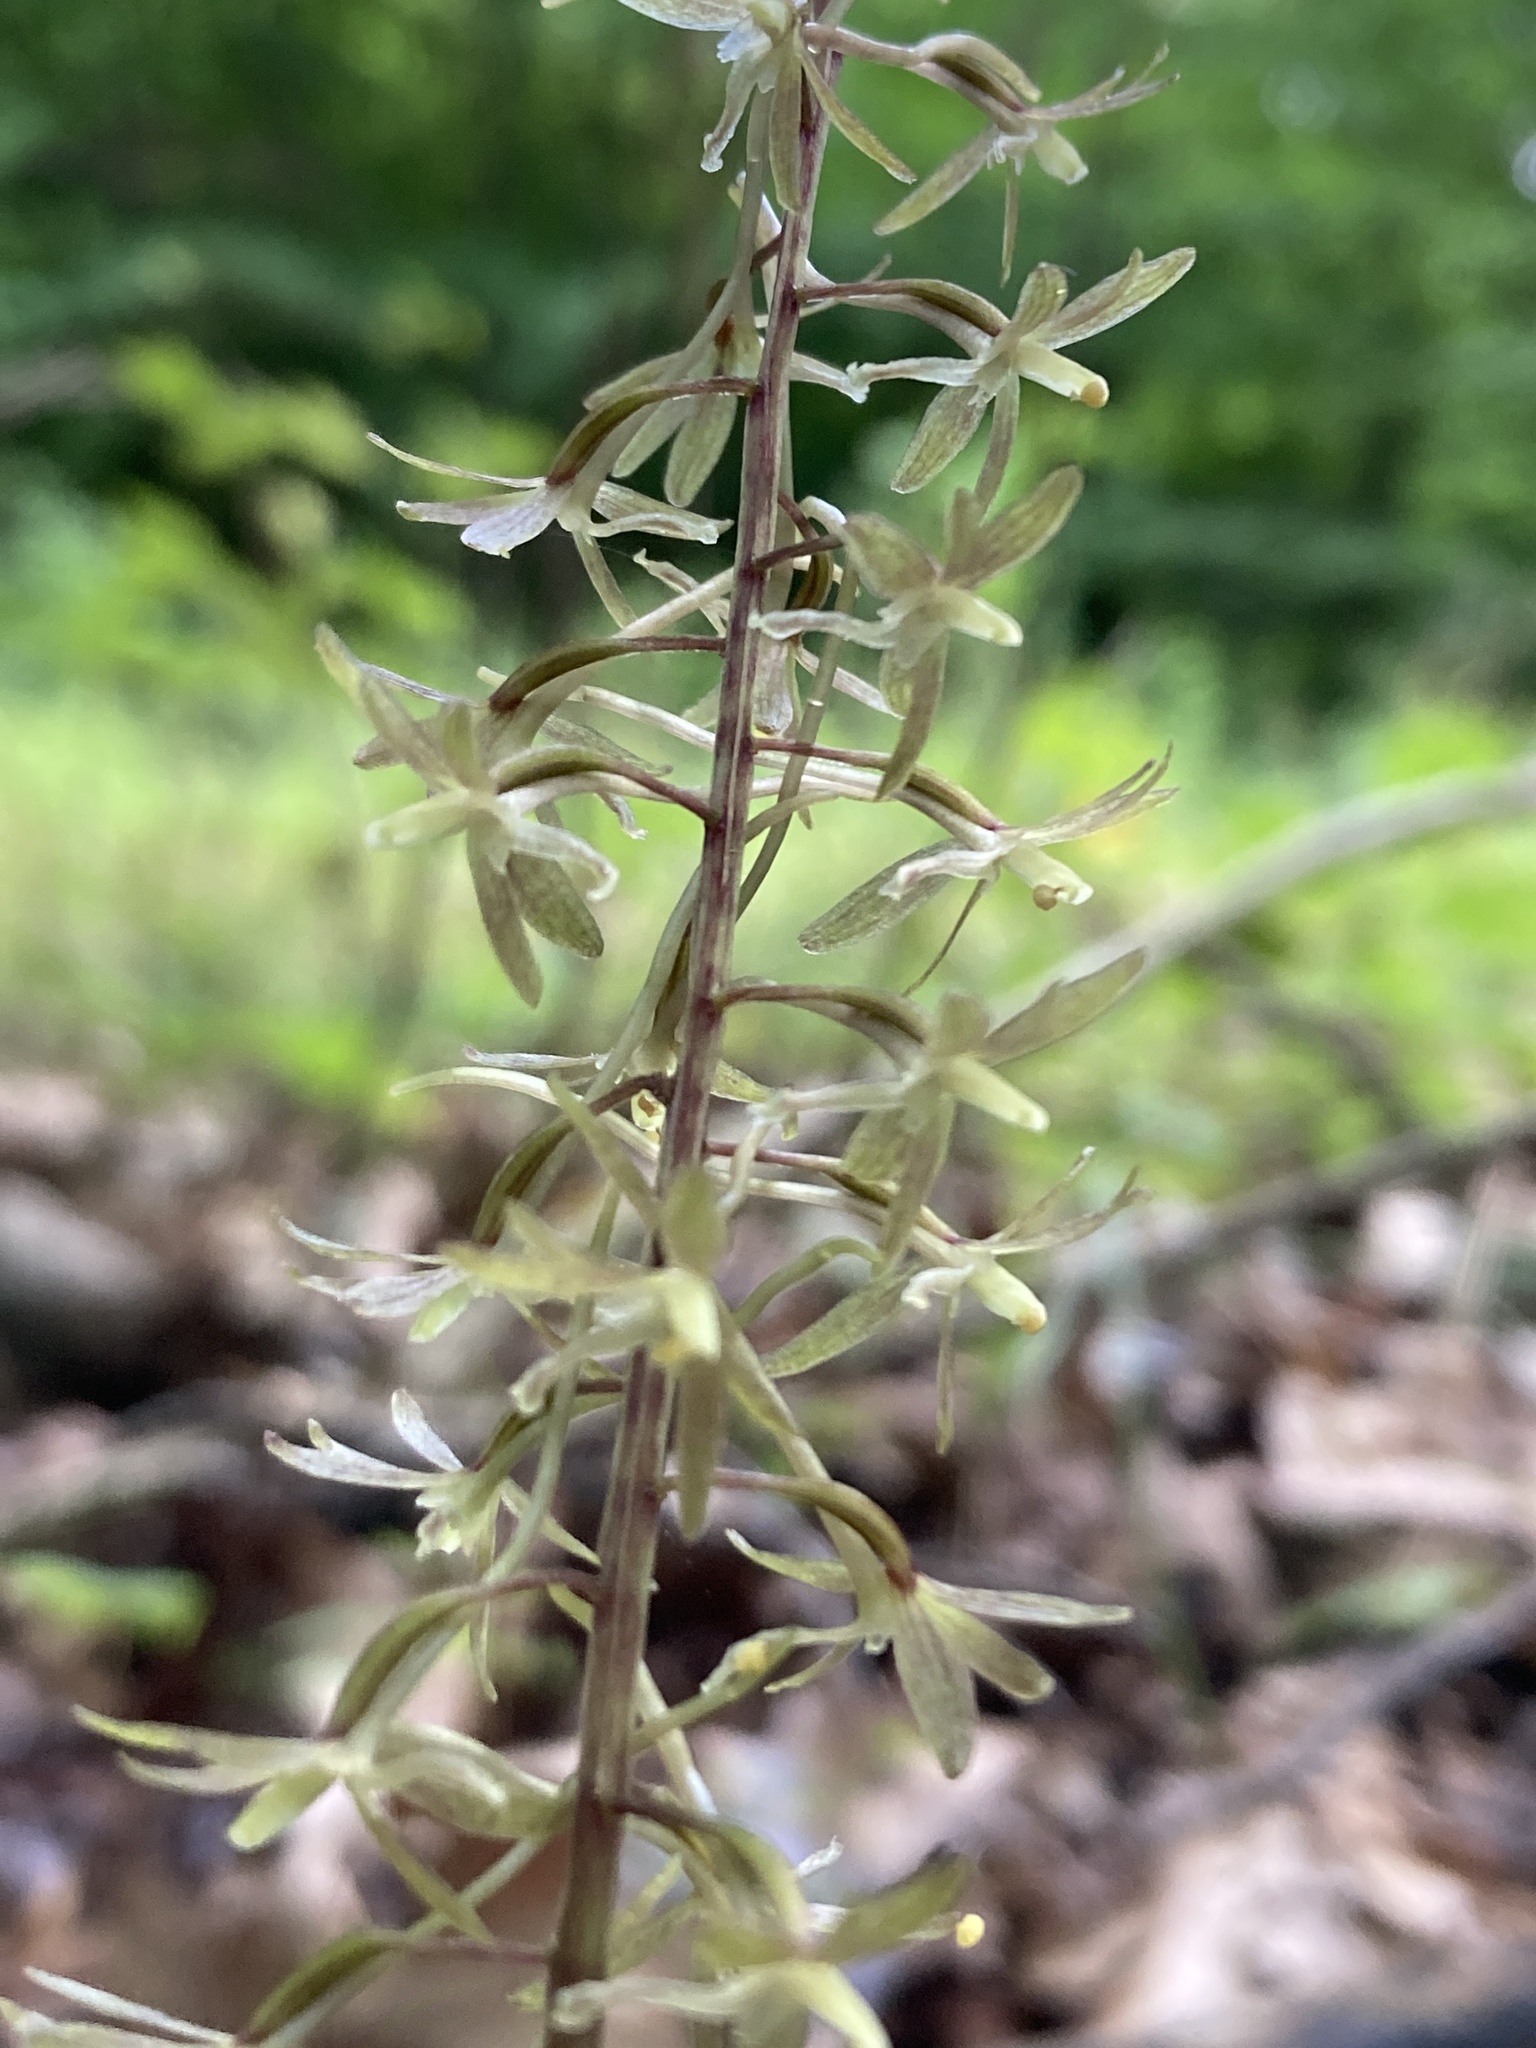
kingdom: Plantae
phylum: Tracheophyta
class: Liliopsida
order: Asparagales
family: Orchidaceae
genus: Tipularia
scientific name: Tipularia discolor
